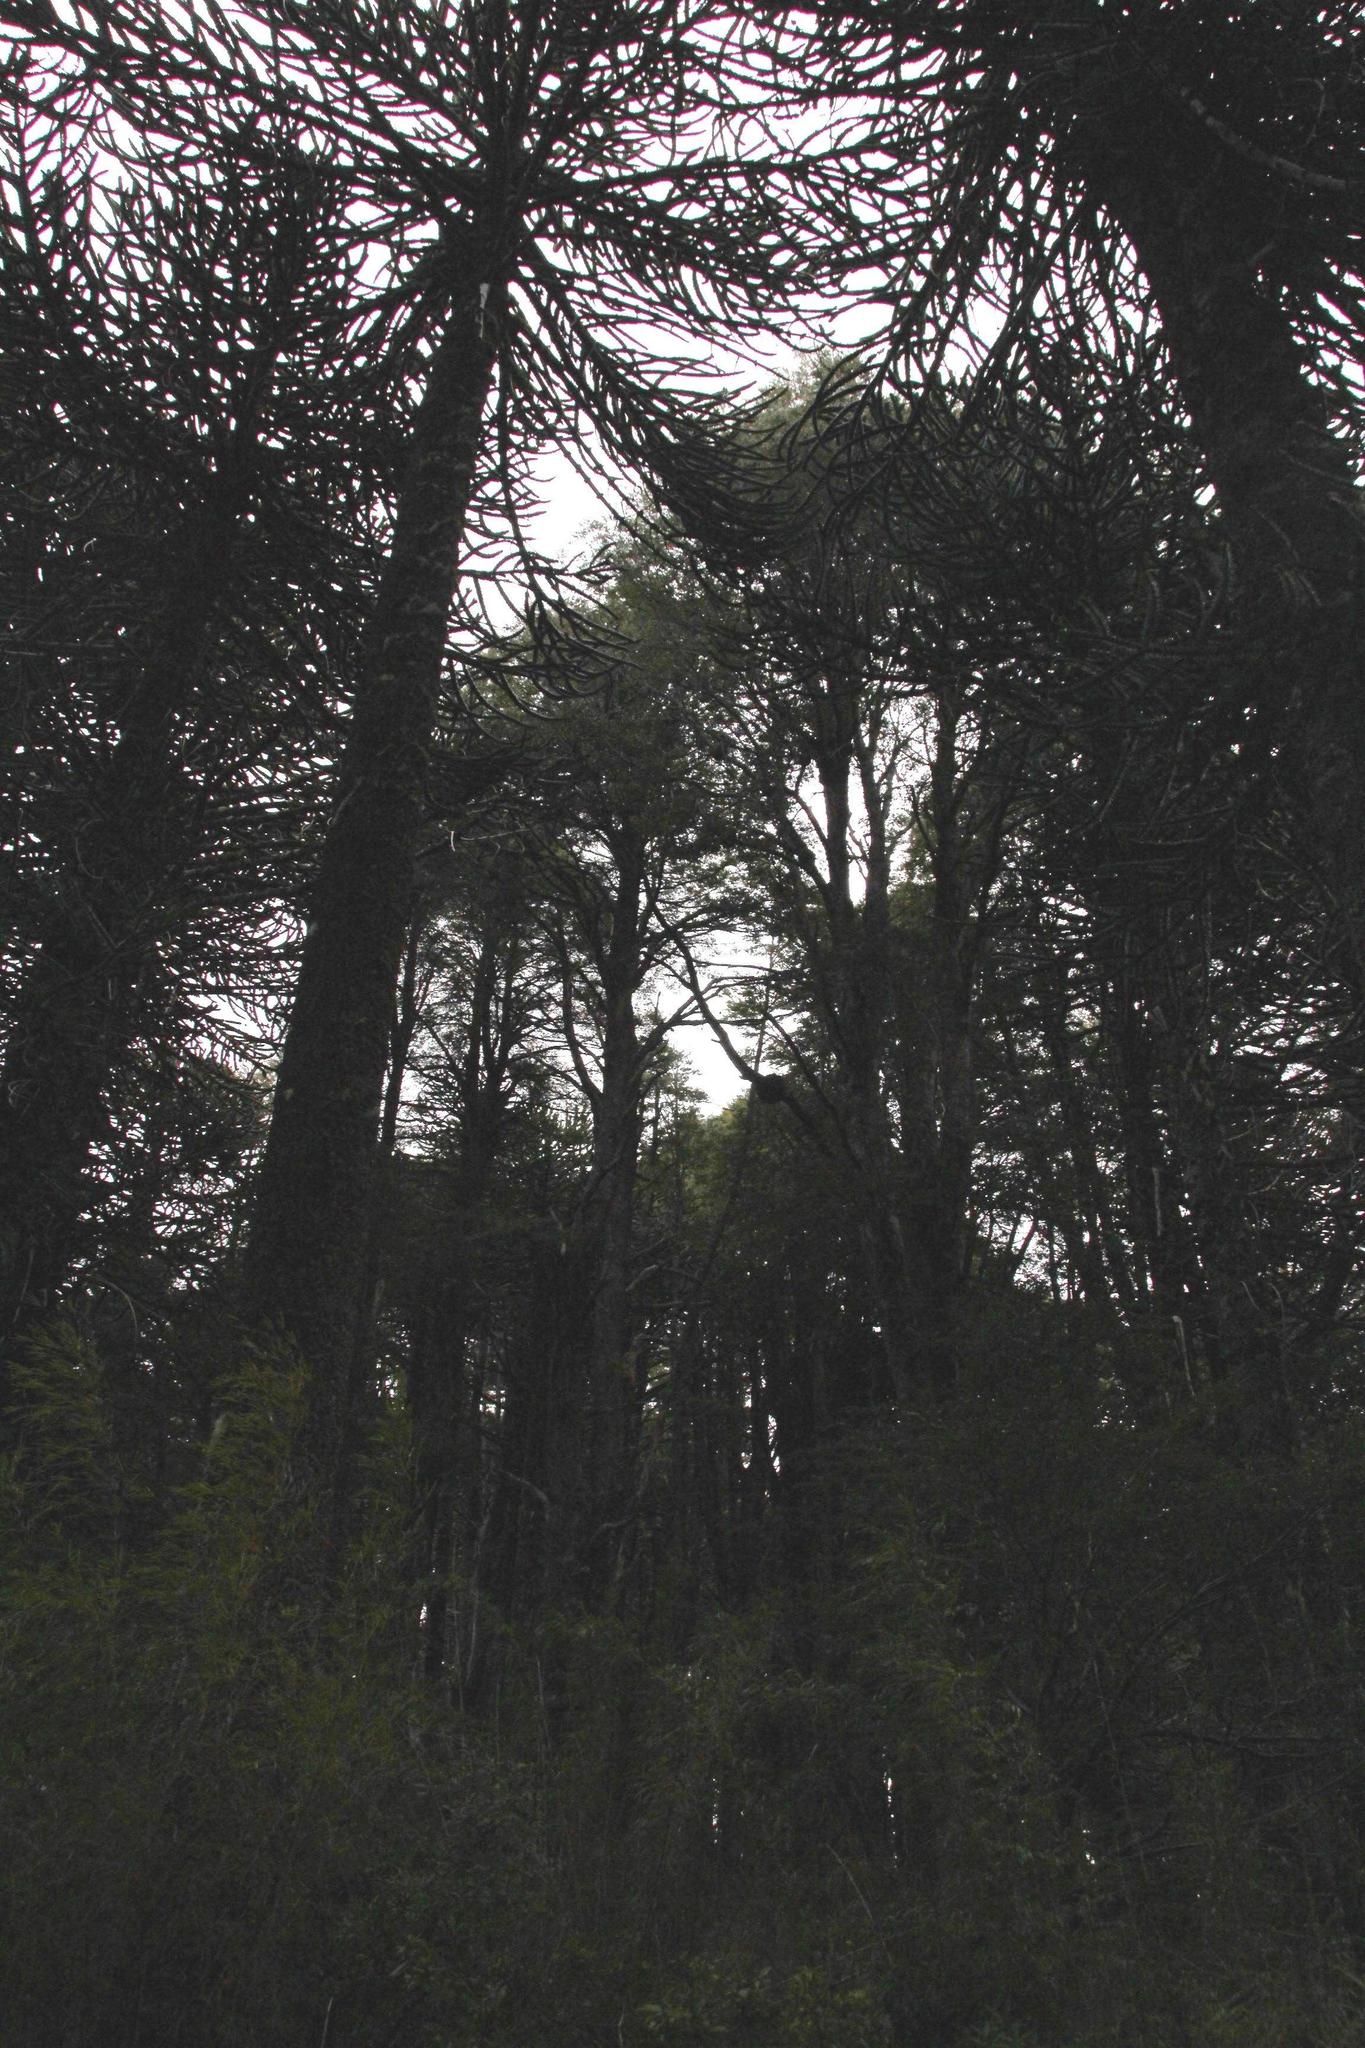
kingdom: Plantae
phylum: Tracheophyta
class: Pinopsida
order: Pinales
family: Araucariaceae
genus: Araucaria
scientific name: Araucaria araucana
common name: Monkey-puzzle
